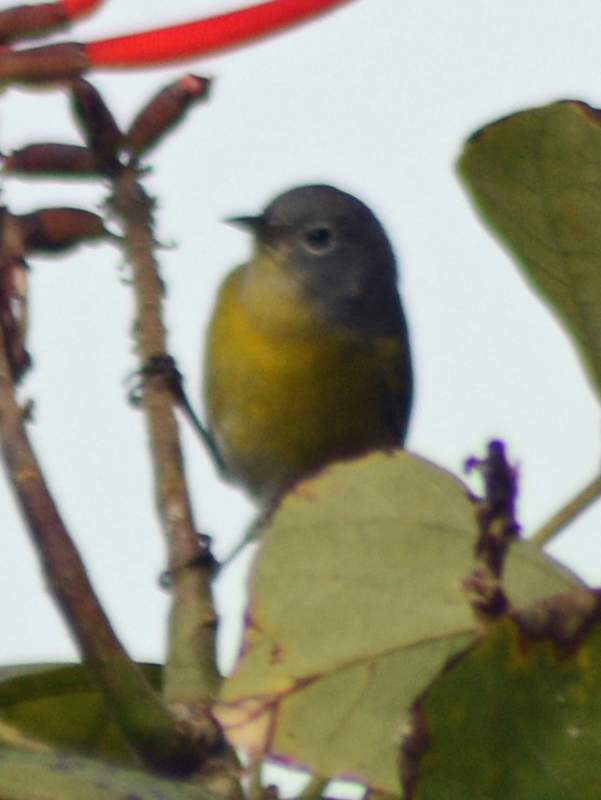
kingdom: Animalia
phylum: Chordata
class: Aves
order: Passeriformes
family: Parulidae
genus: Leiothlypis
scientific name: Leiothlypis ruficapilla
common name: Nashville warbler
